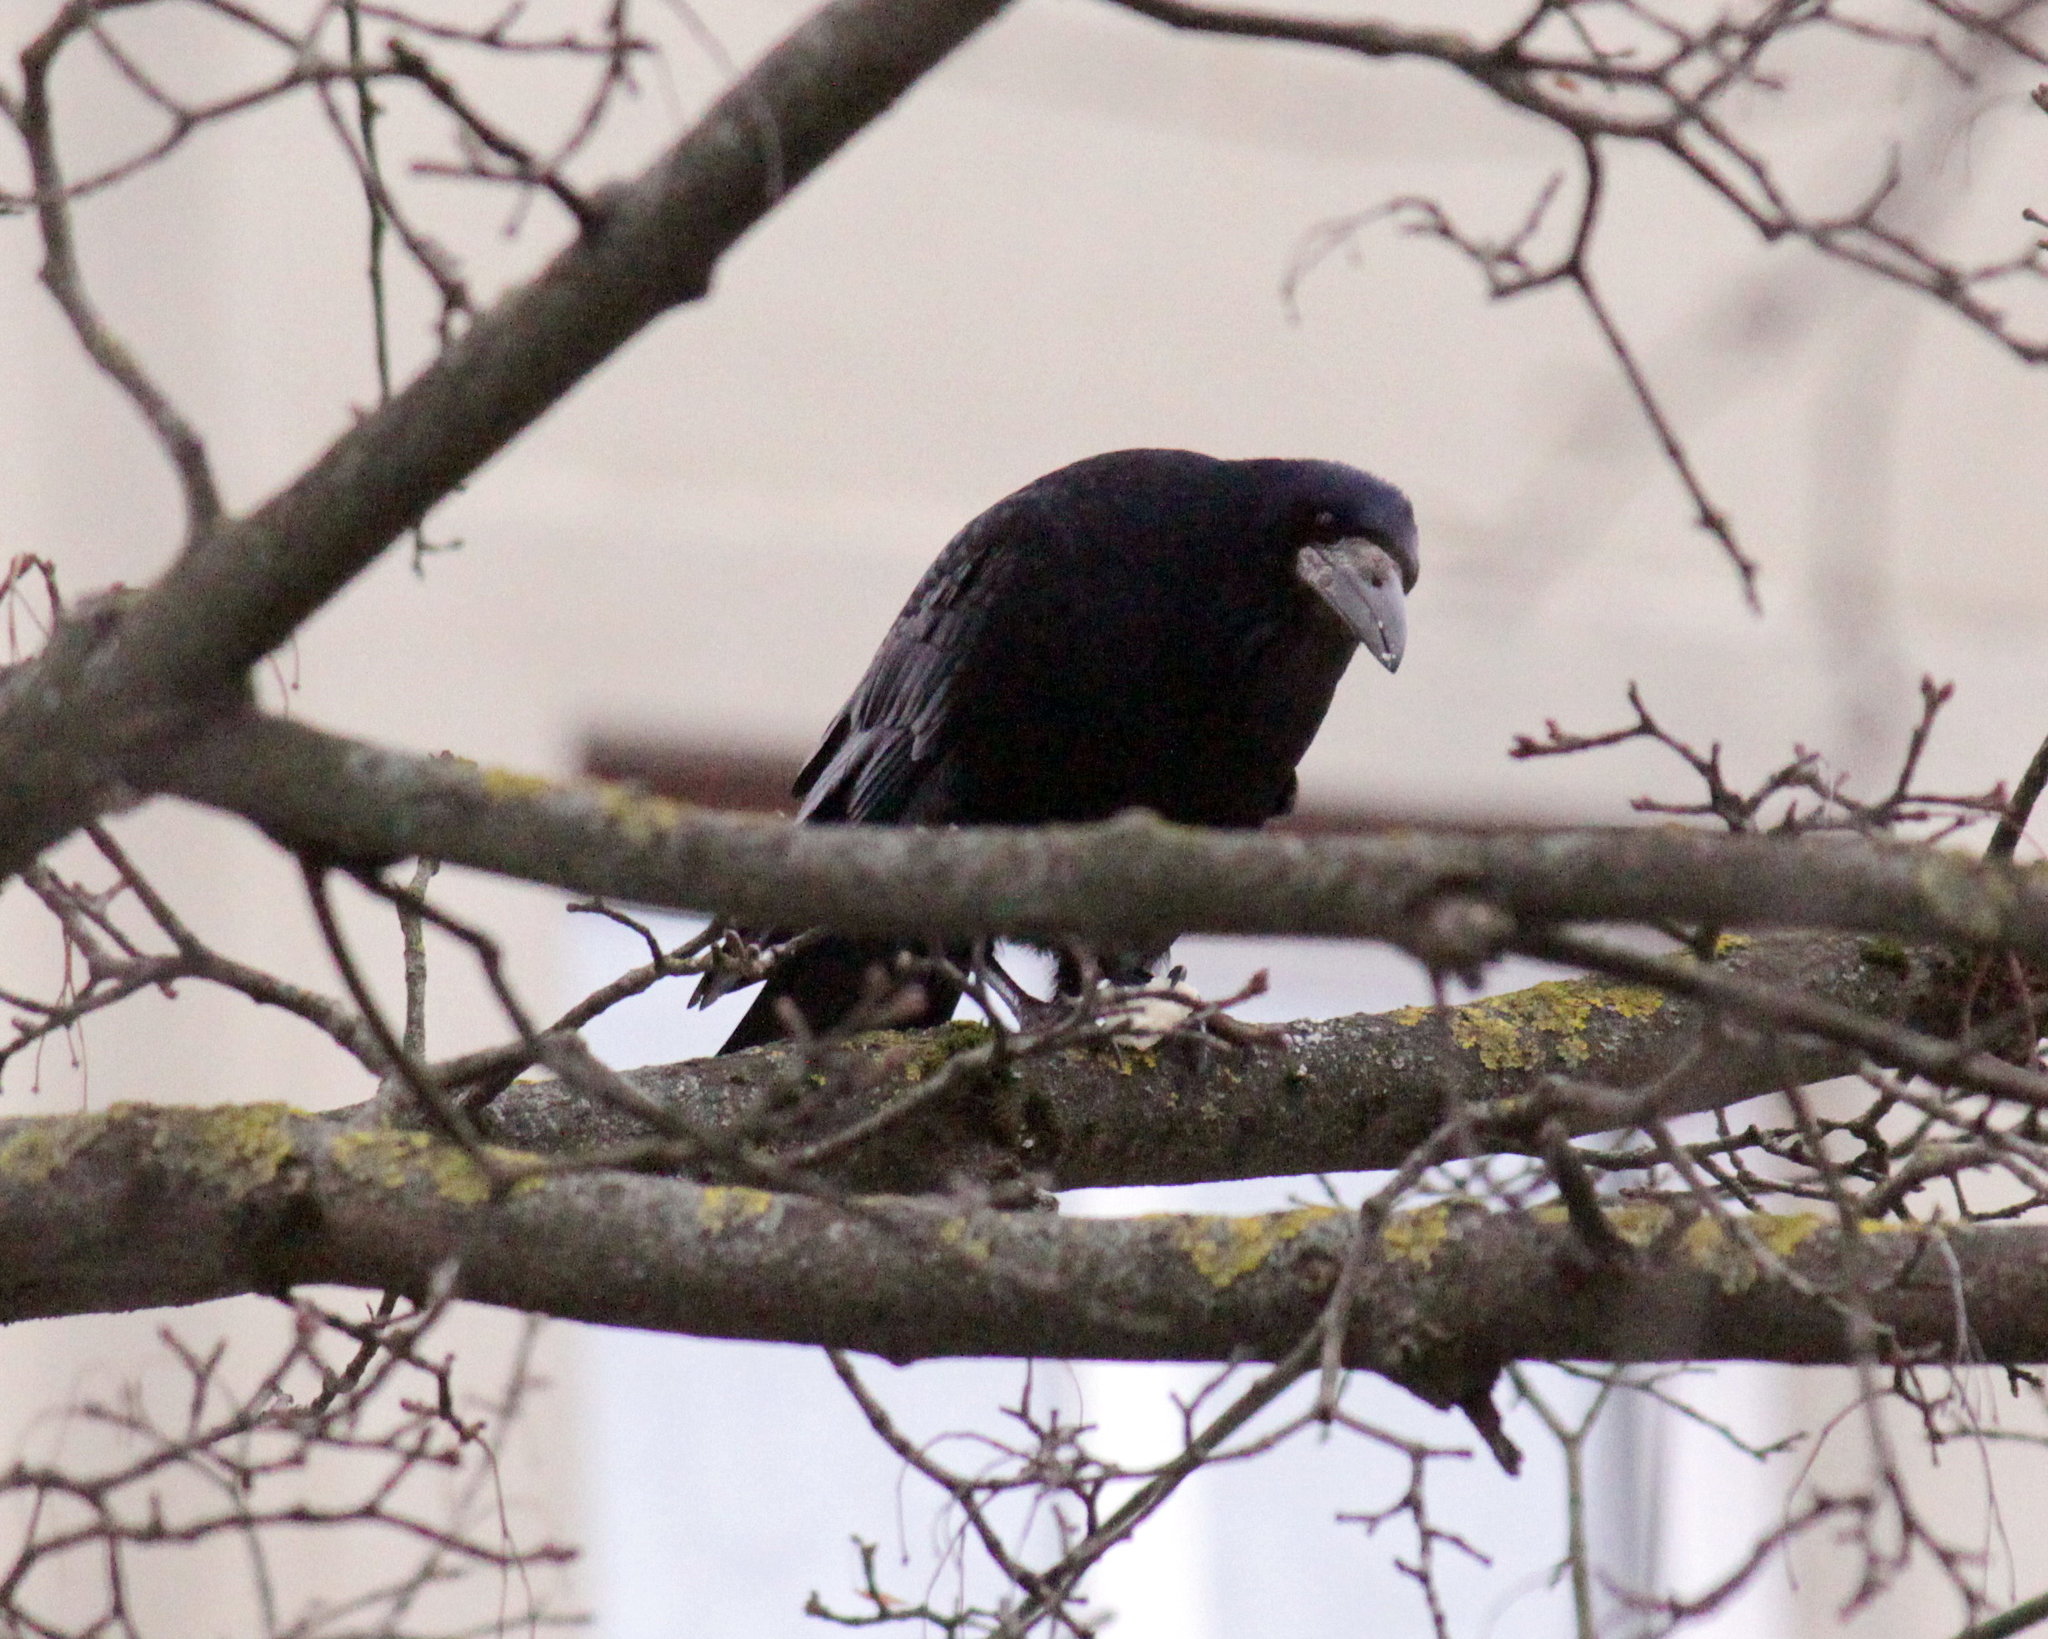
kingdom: Animalia
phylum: Chordata
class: Aves
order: Passeriformes
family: Corvidae
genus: Corvus
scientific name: Corvus frugilegus
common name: Rook
